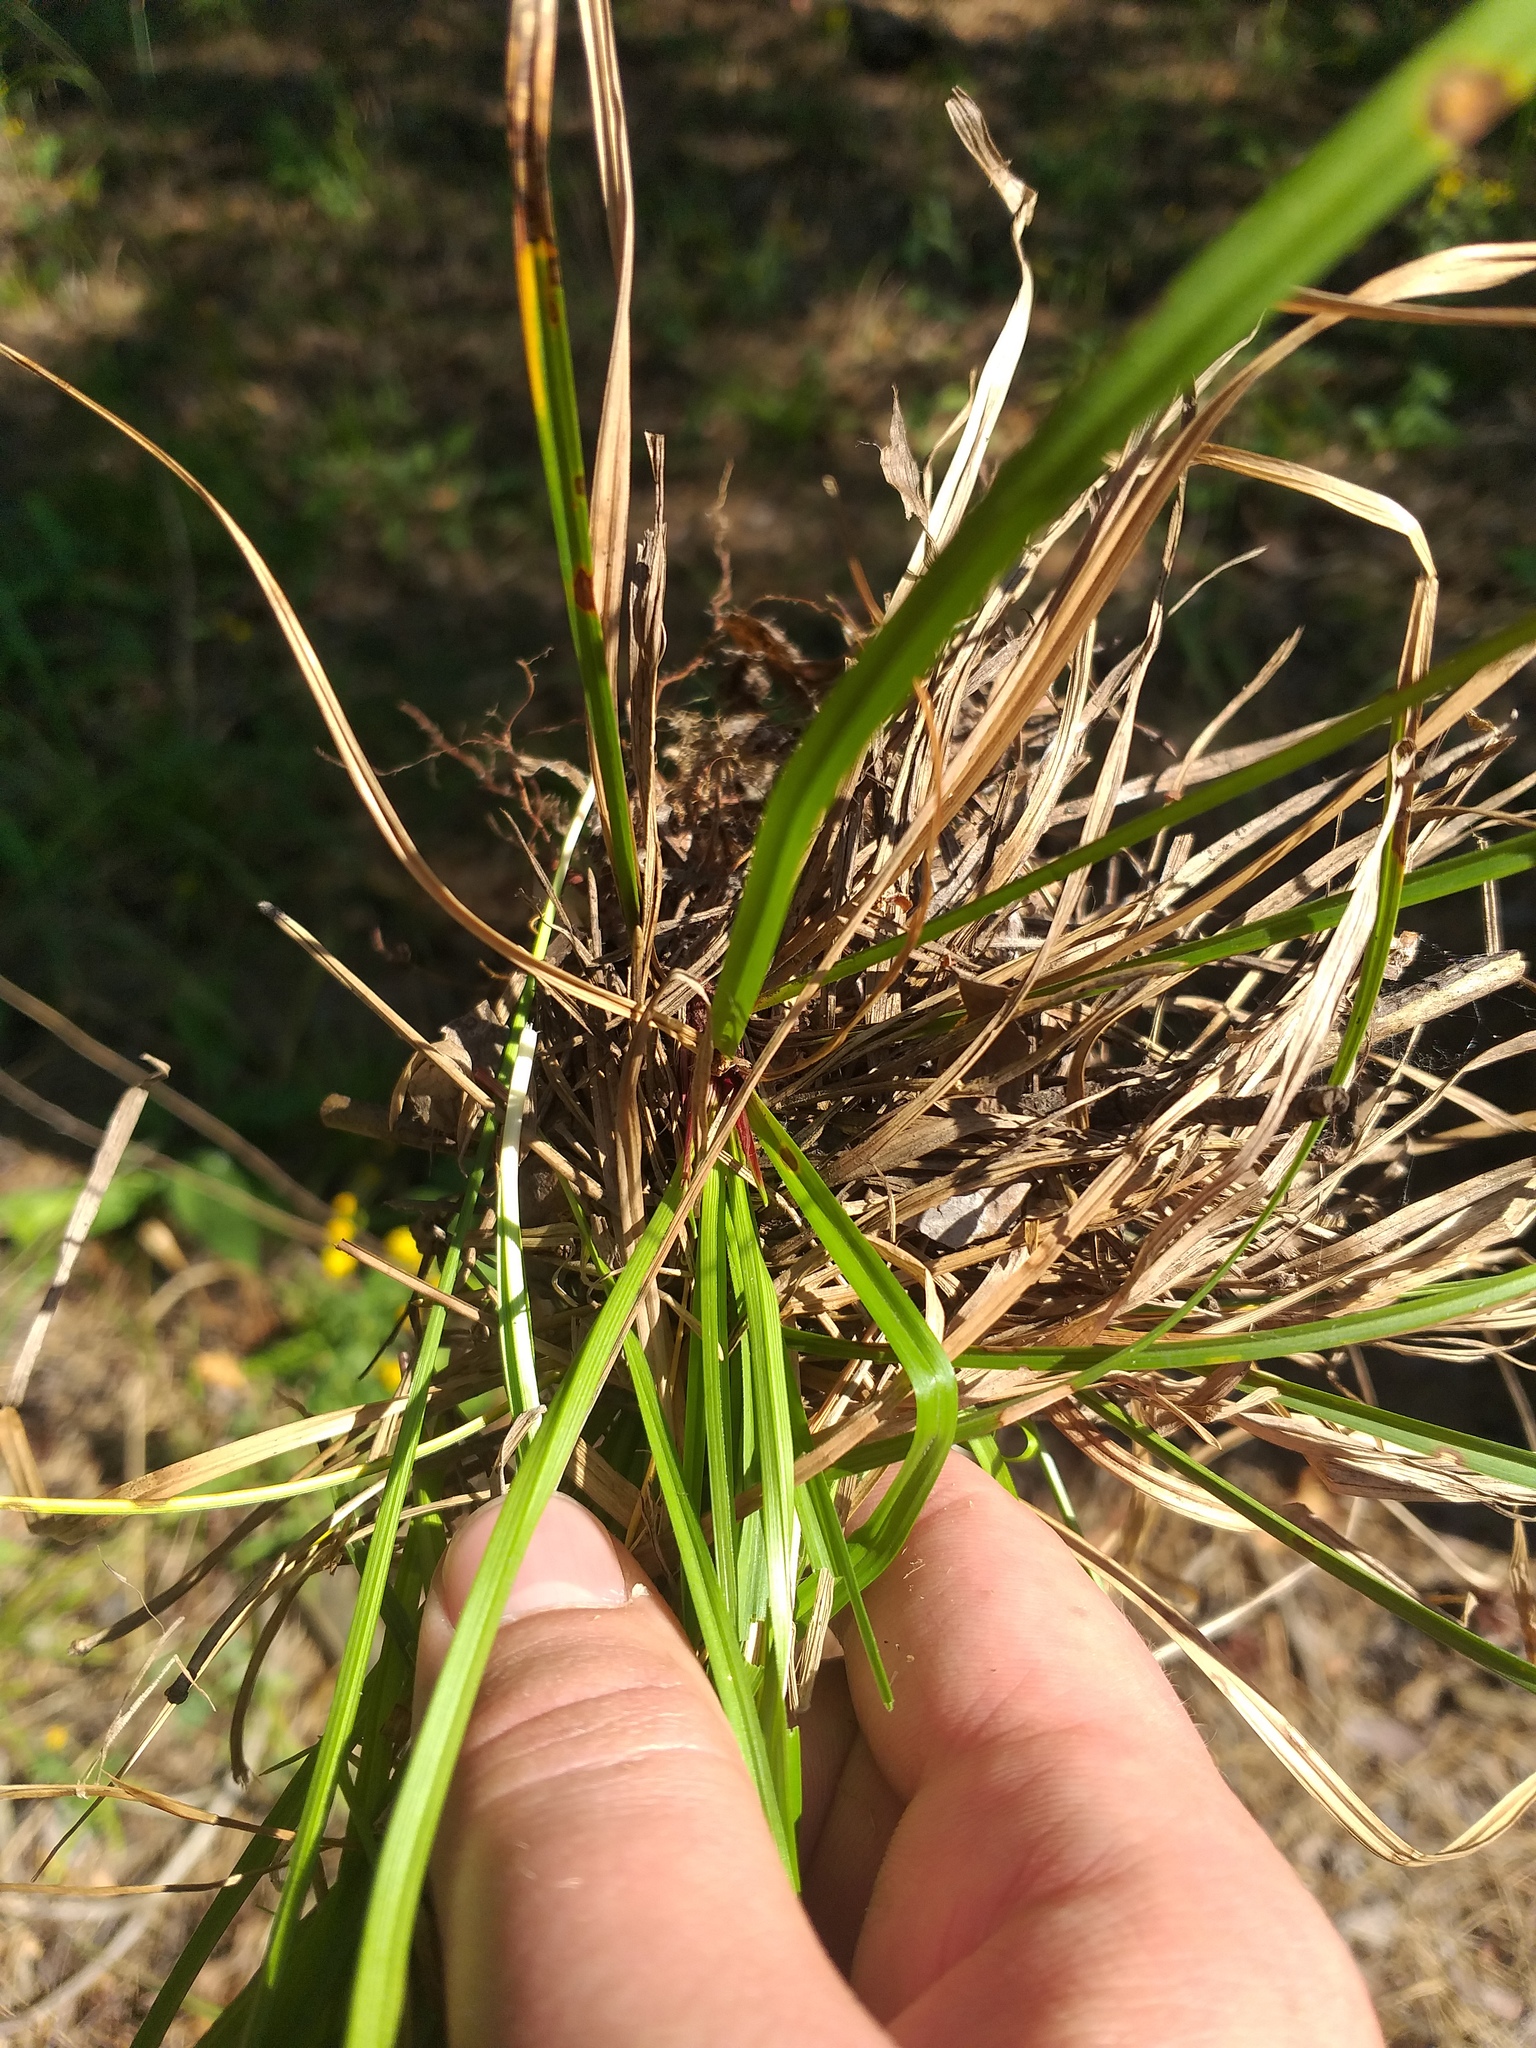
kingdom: Plantae
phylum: Tracheophyta
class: Liliopsida
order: Poales
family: Cyperaceae
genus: Carex
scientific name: Carex digitata
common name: Fingered sedge
